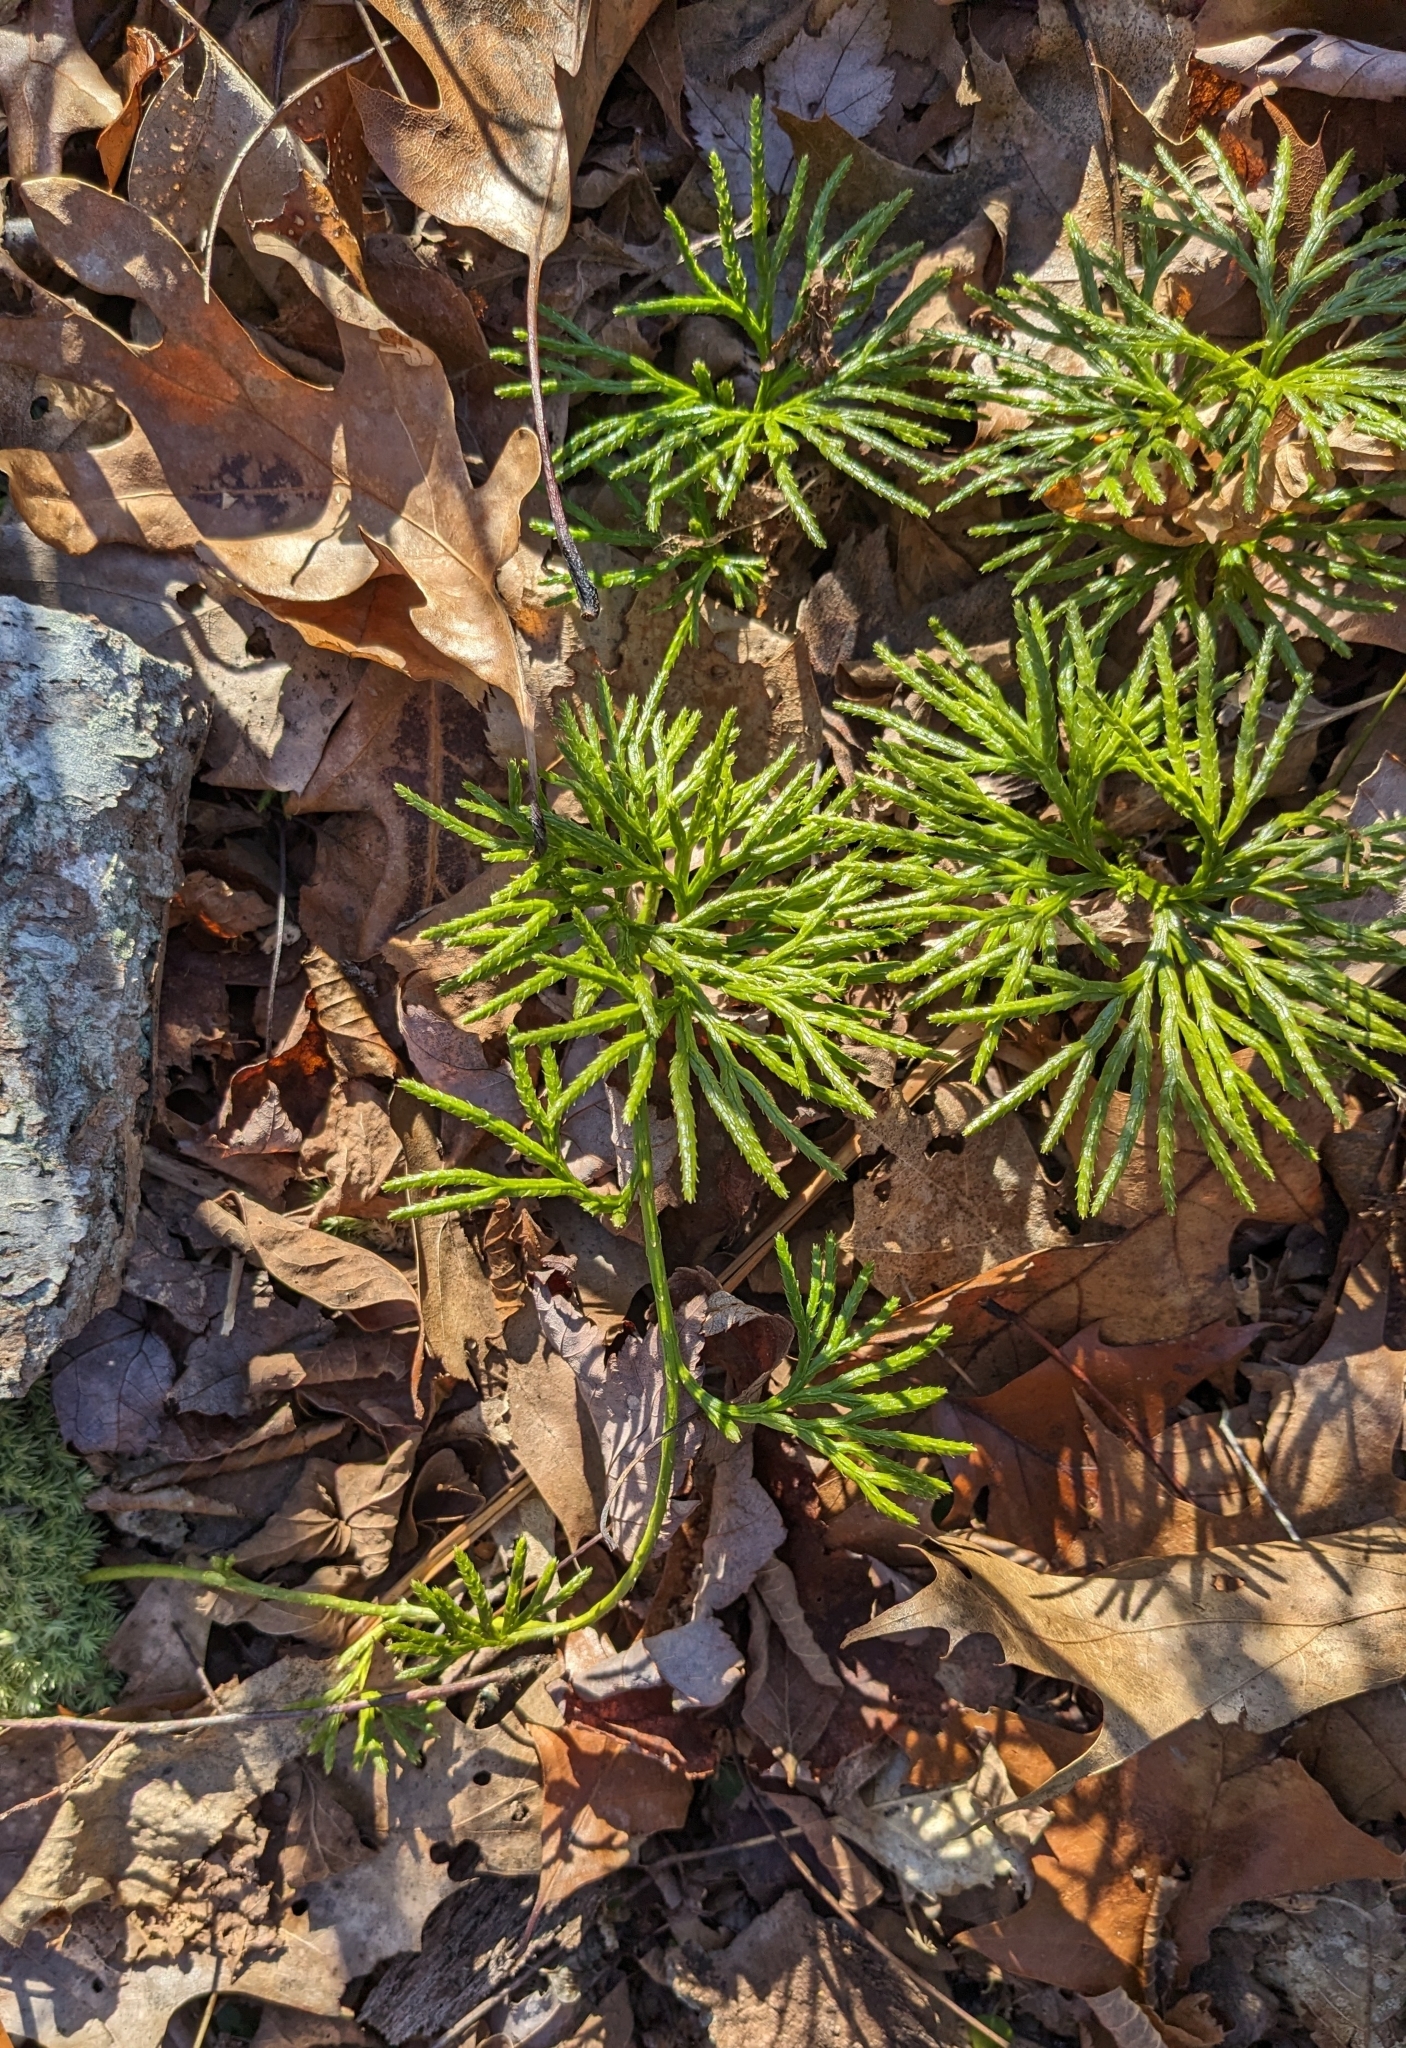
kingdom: Plantae
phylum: Tracheophyta
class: Lycopodiopsida
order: Lycopodiales
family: Lycopodiaceae
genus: Diphasiastrum
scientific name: Diphasiastrum digitatum
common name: Southern running-pine
